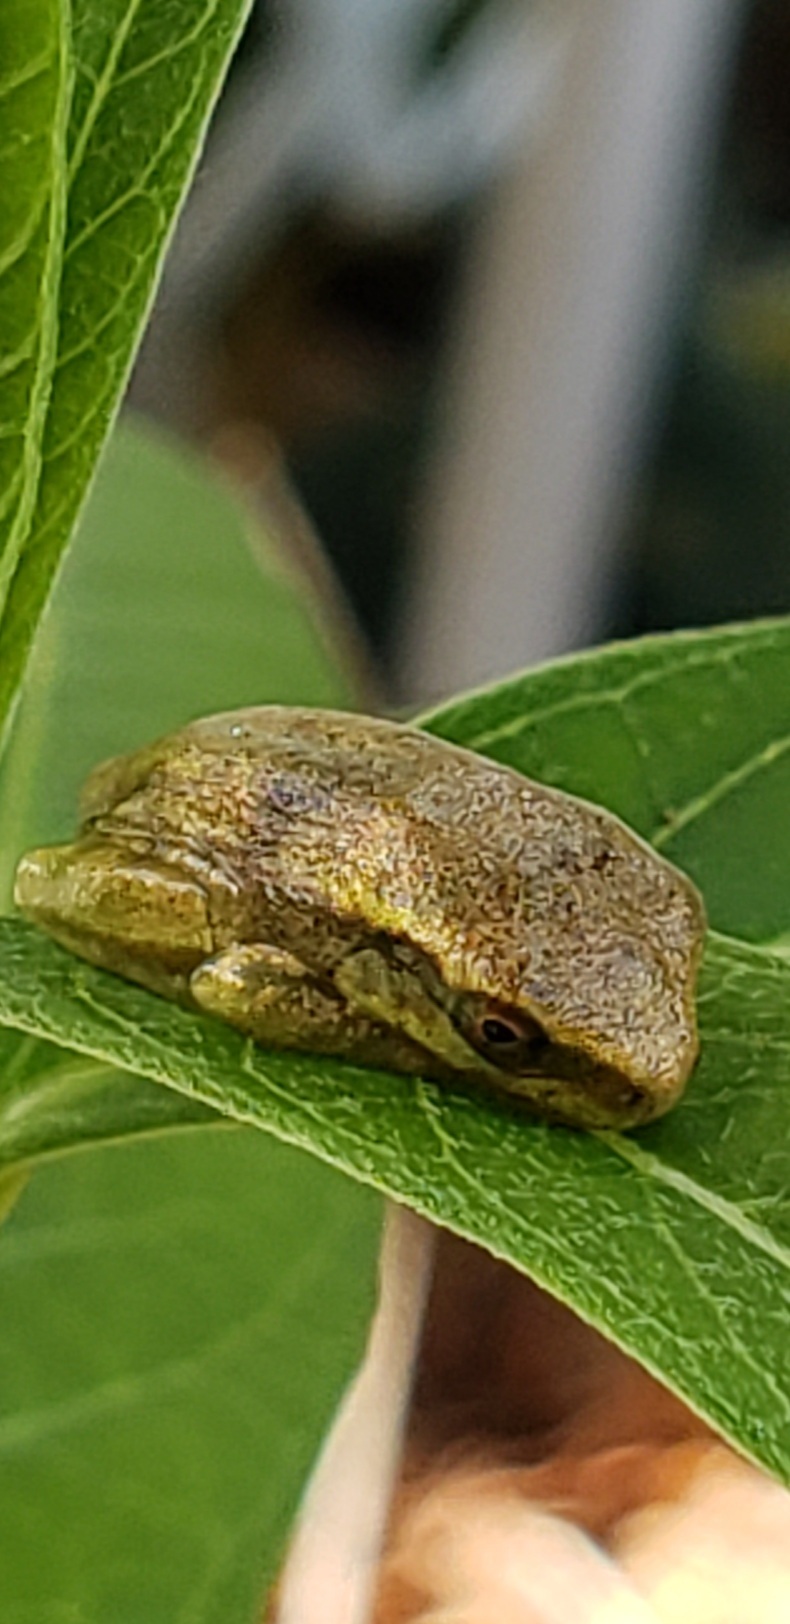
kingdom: Animalia
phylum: Chordata
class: Amphibia
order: Anura
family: Hylidae
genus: Osteopilus
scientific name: Osteopilus septentrionalis
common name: Cuban treefrog
